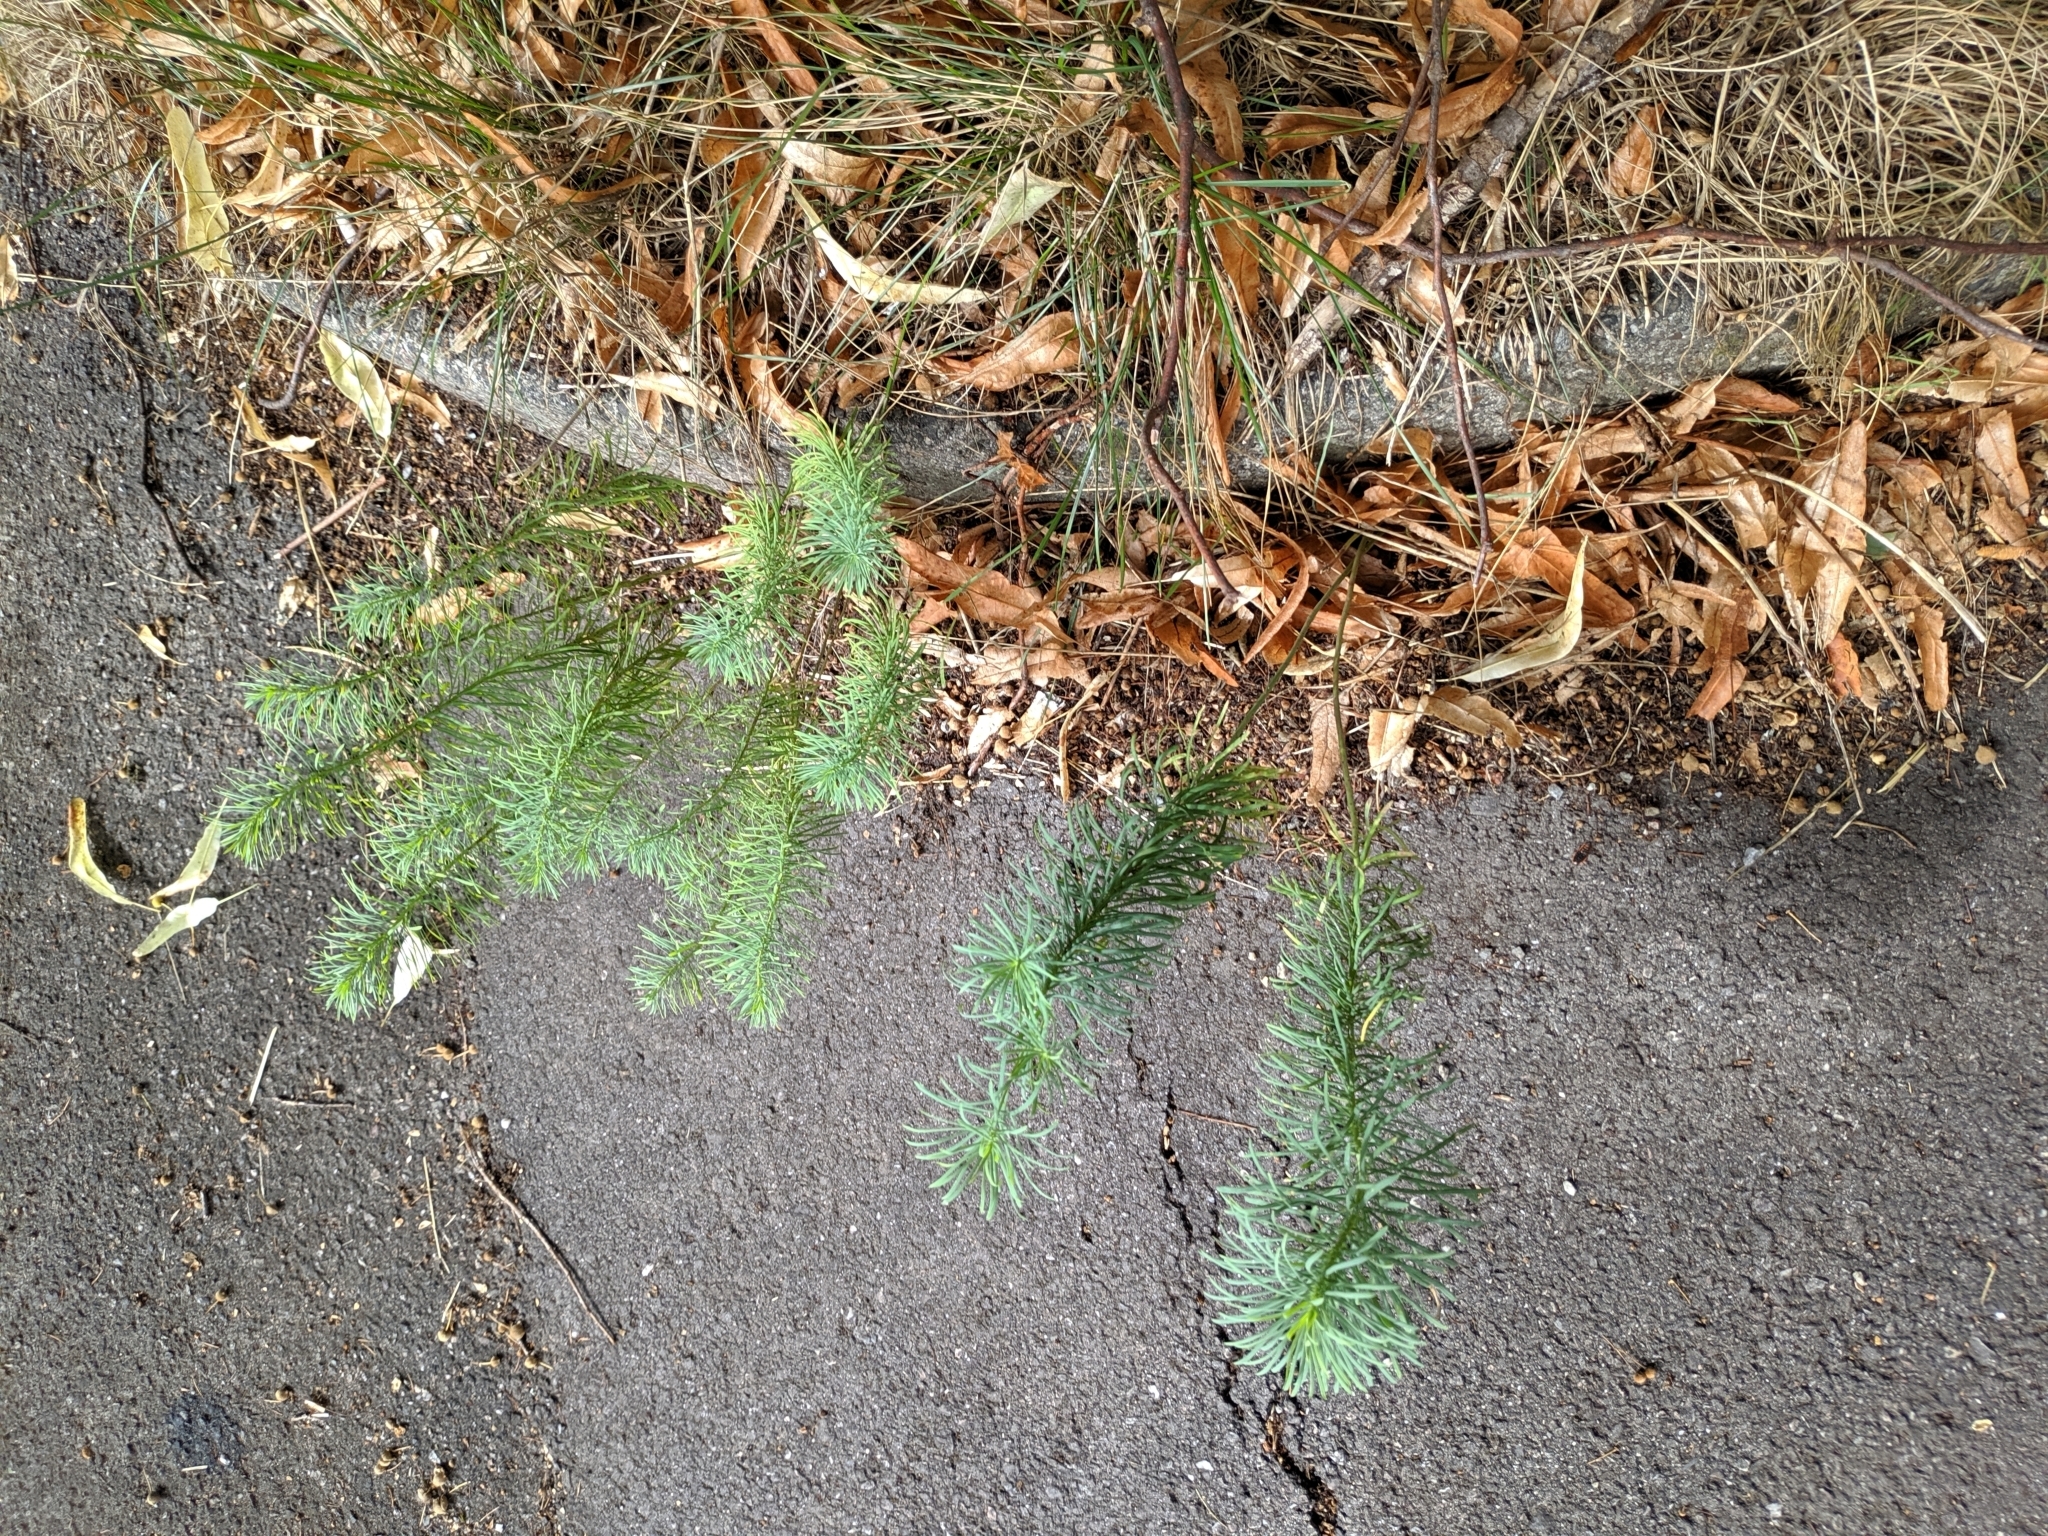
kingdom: Plantae
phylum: Tracheophyta
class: Magnoliopsida
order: Malpighiales
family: Euphorbiaceae
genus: Euphorbia
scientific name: Euphorbia cyparissias
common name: Cypress spurge
